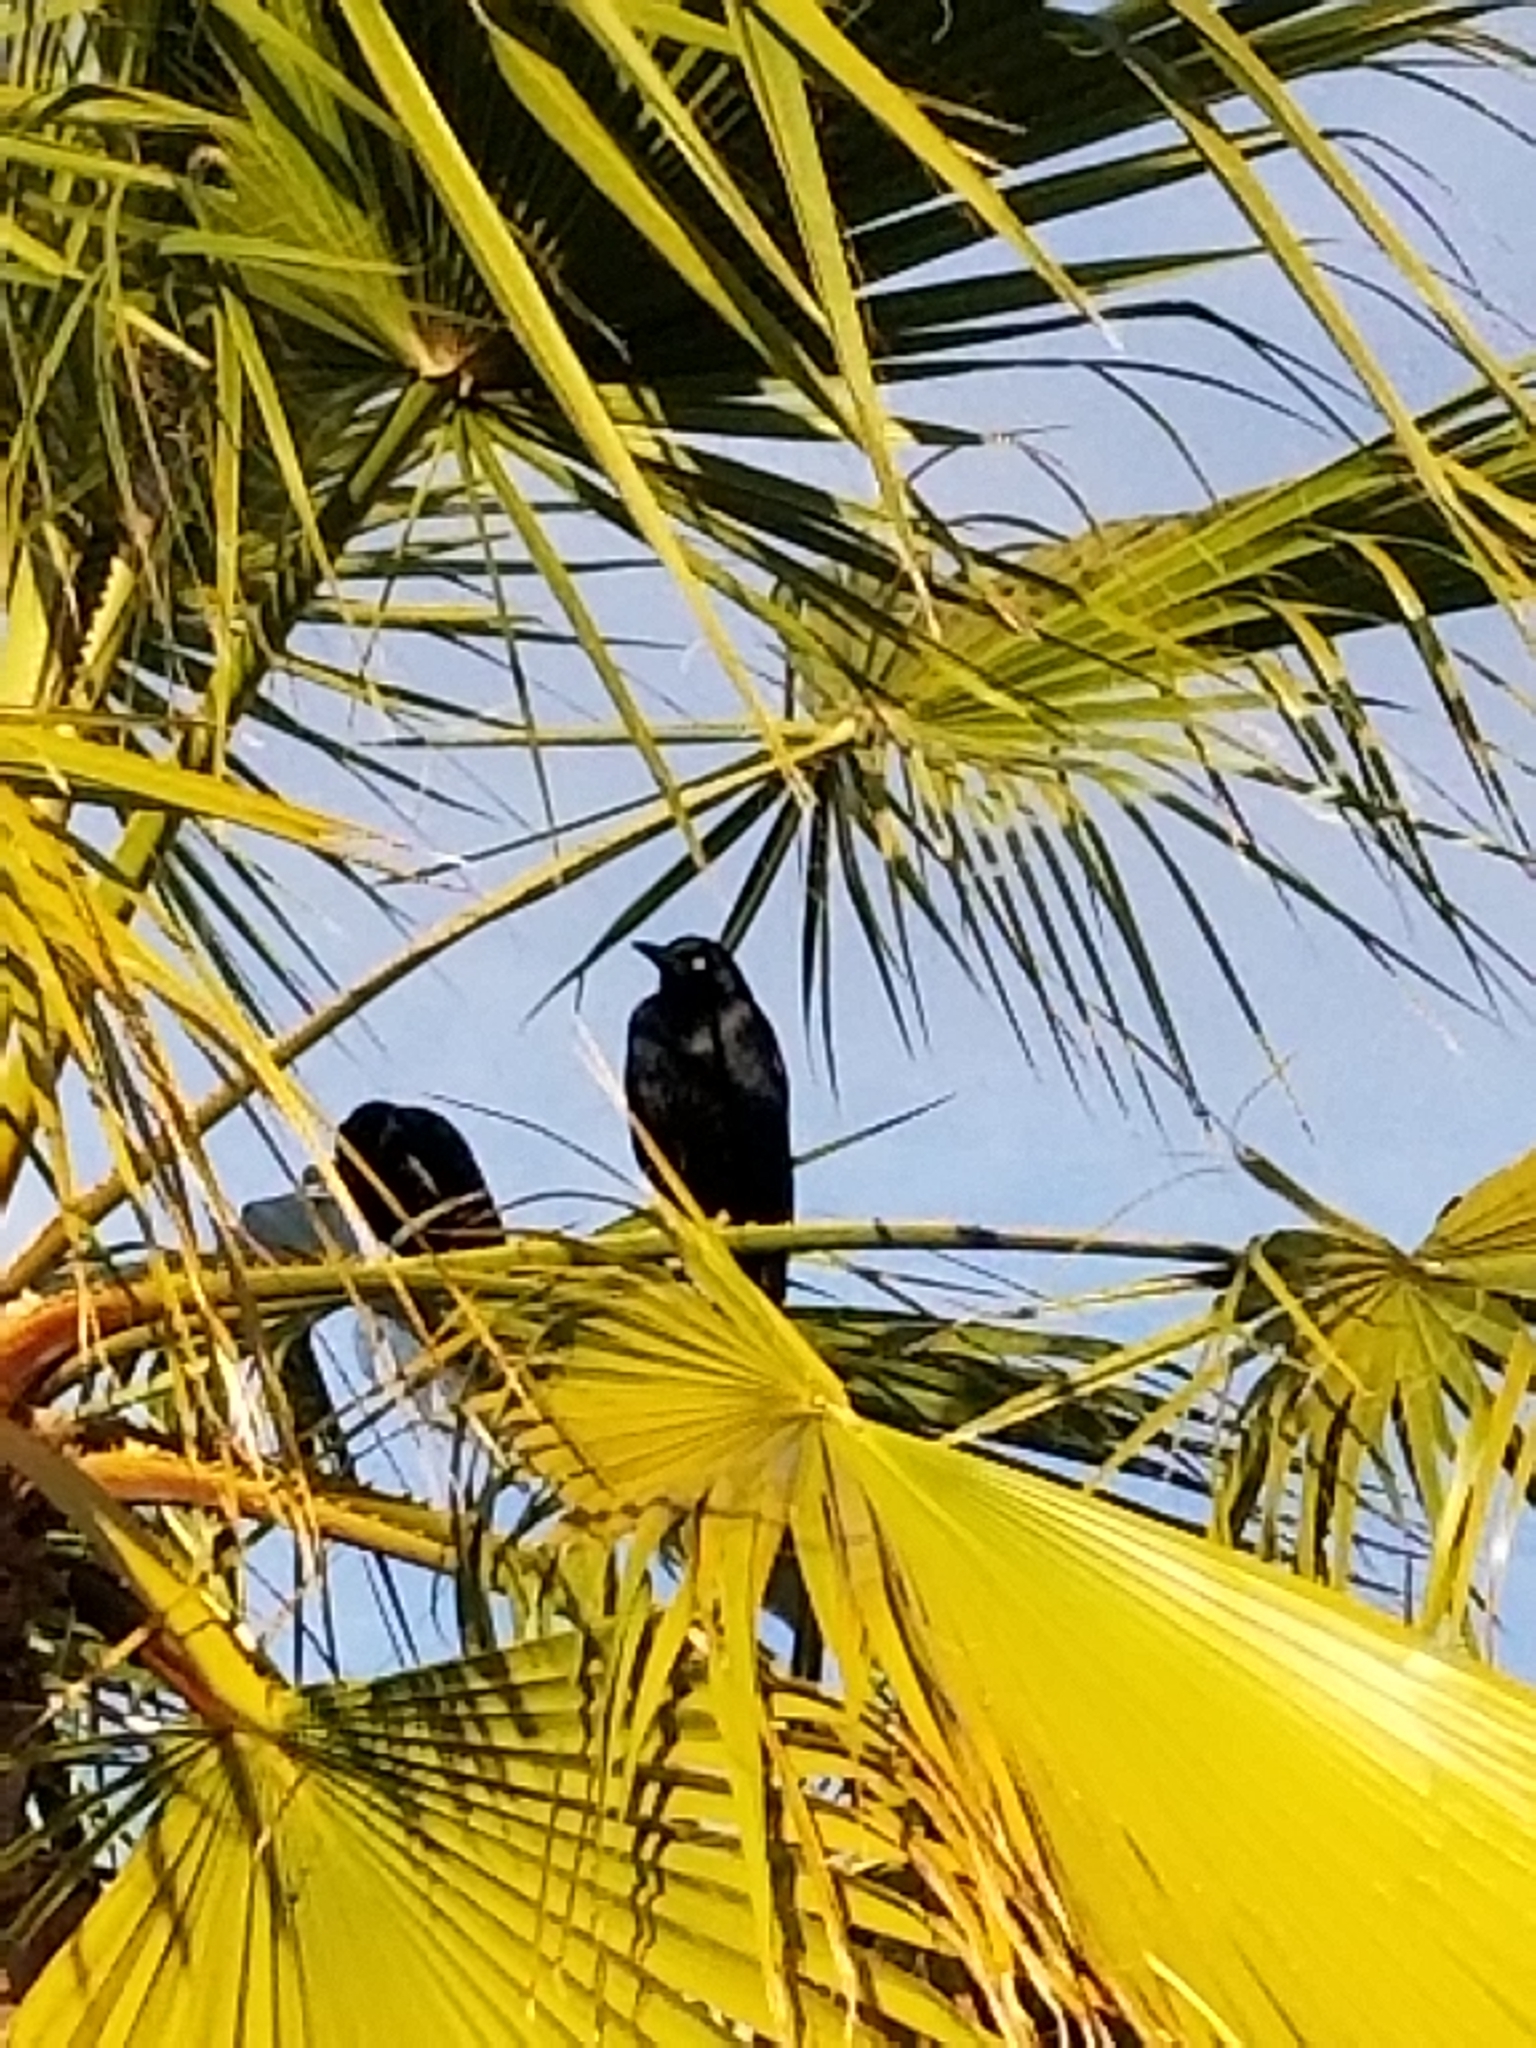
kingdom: Animalia
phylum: Chordata
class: Aves
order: Passeriformes
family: Icteridae
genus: Quiscalus
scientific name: Quiscalus mexicanus
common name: Great-tailed grackle
